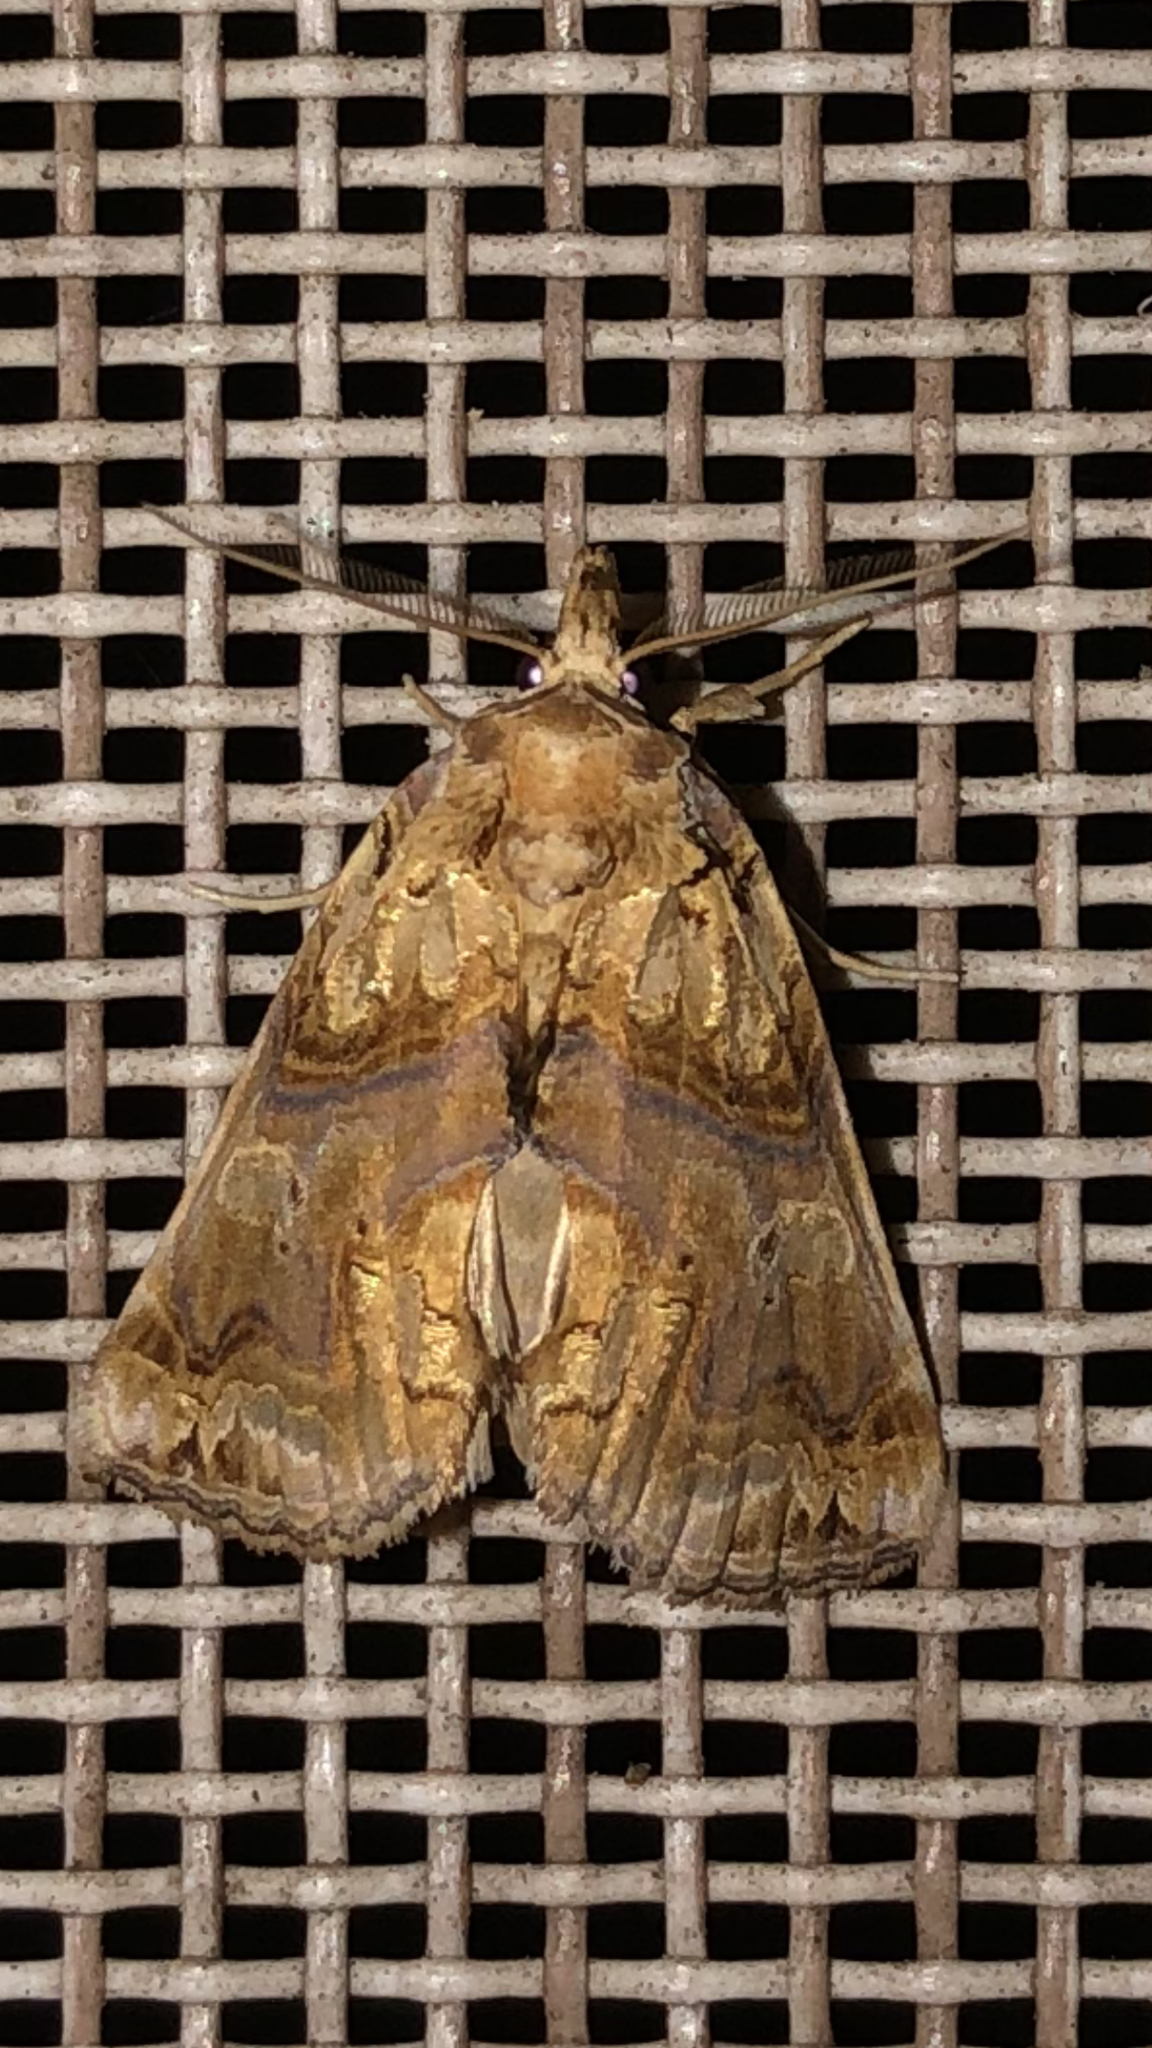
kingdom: Animalia
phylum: Arthropoda
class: Insecta
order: Lepidoptera
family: Erebidae
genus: Plusiodonta
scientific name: Plusiodonta compressipalpis
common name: Moonseed moth
